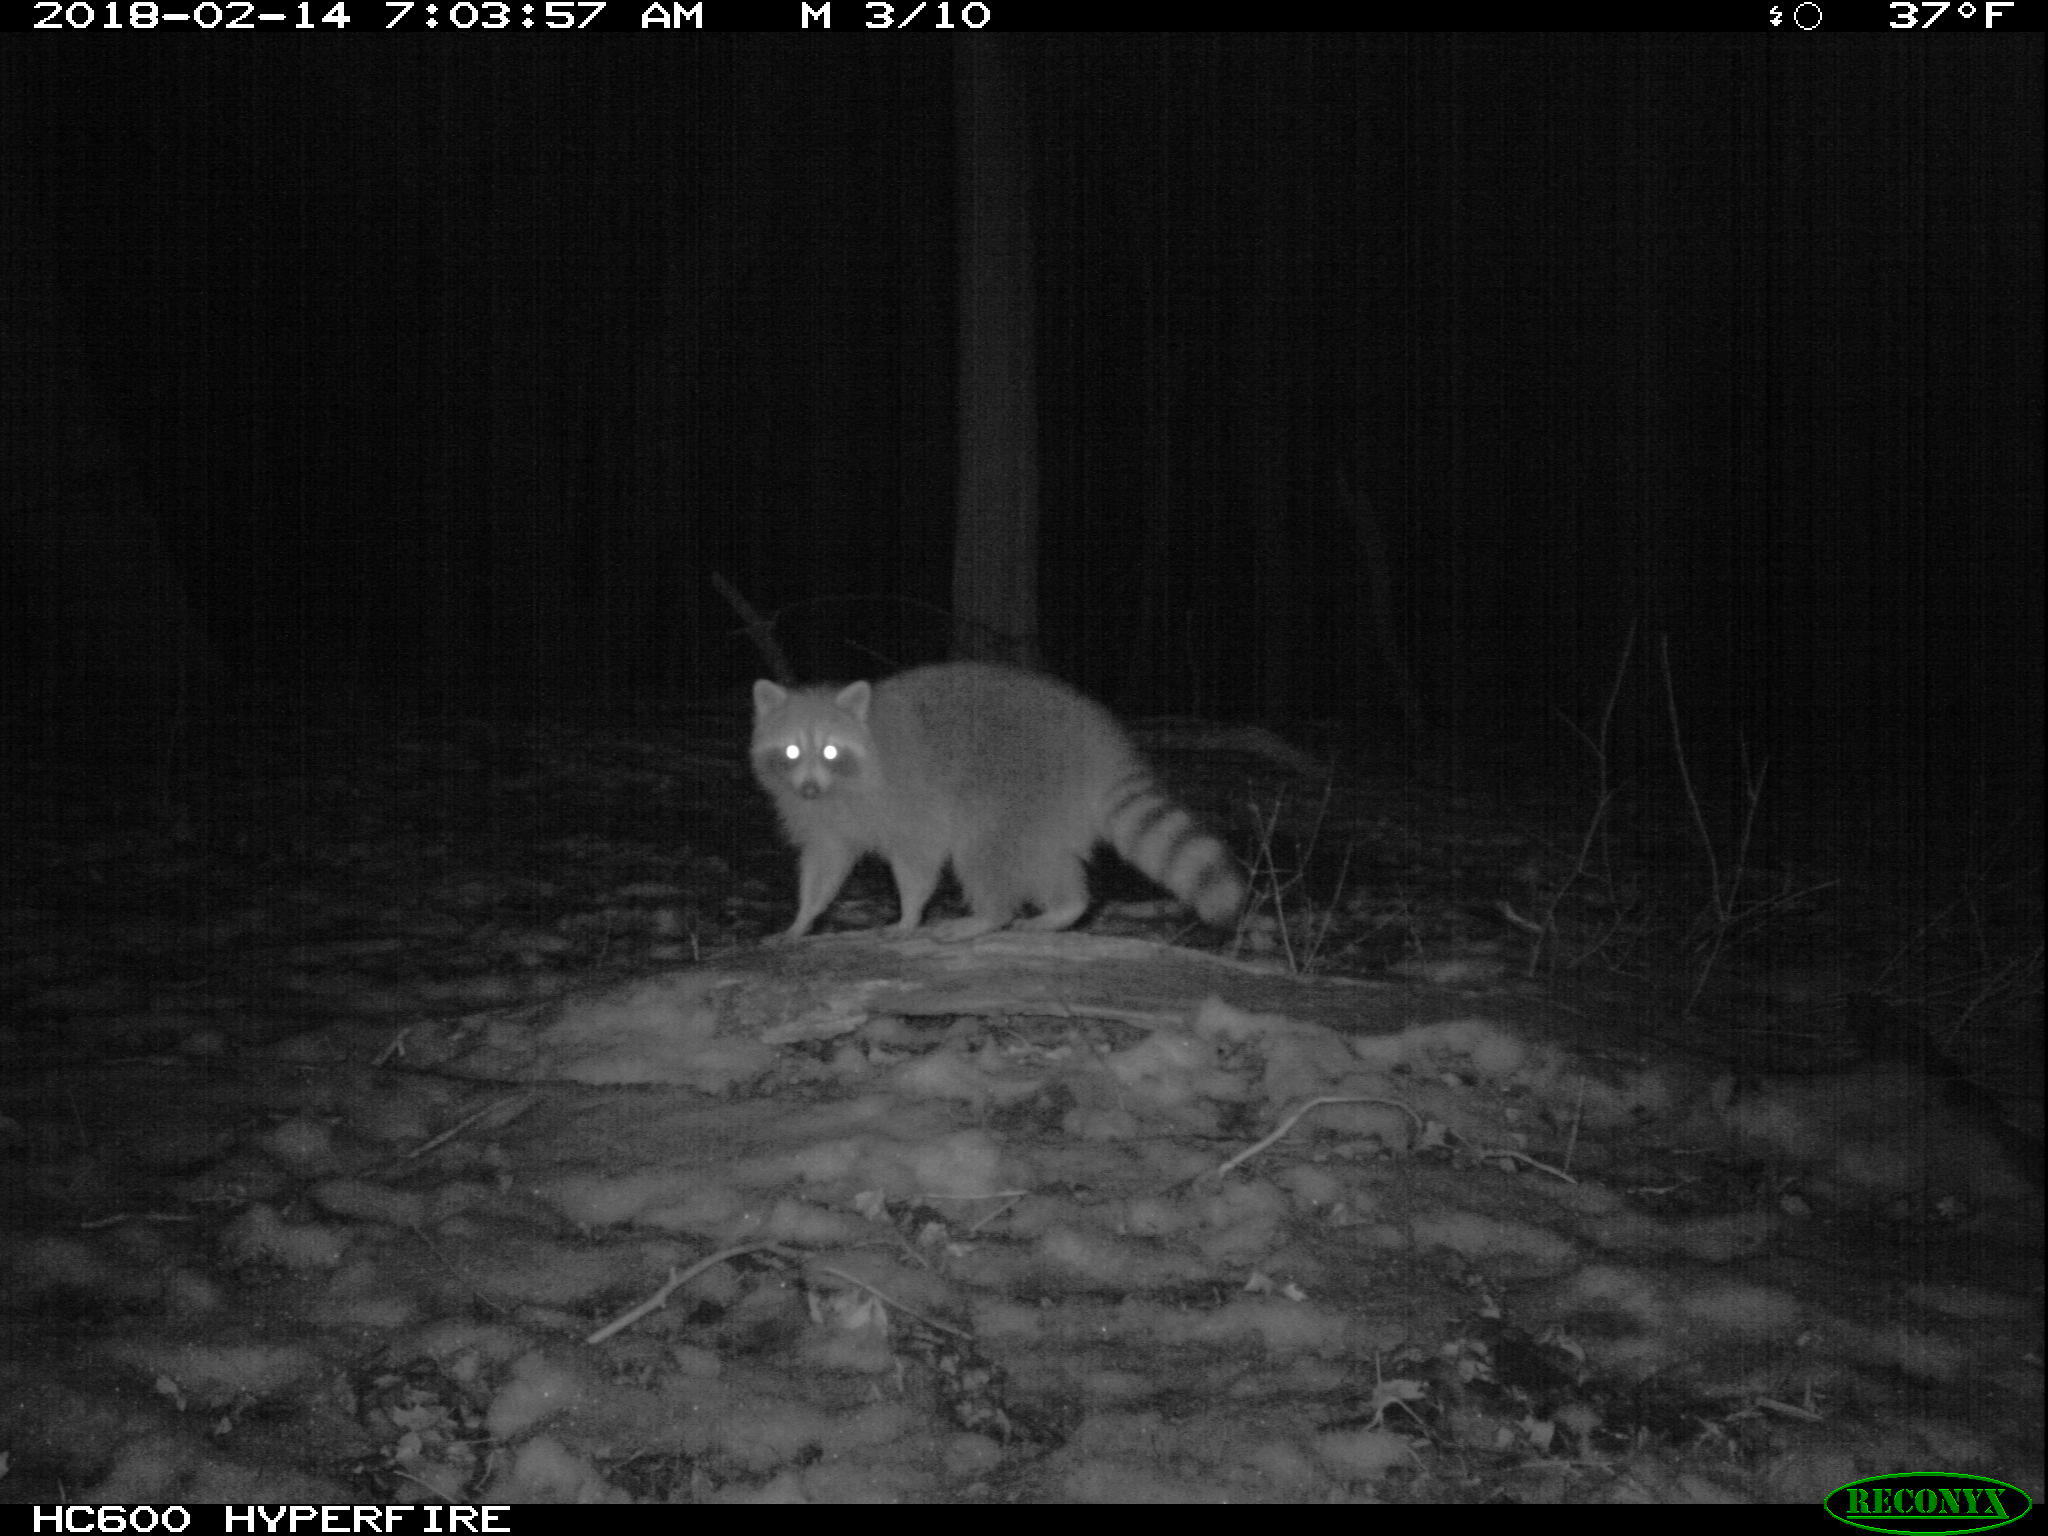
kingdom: Animalia
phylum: Chordata
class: Mammalia
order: Carnivora
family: Procyonidae
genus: Procyon
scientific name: Procyon lotor
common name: Raccoon
